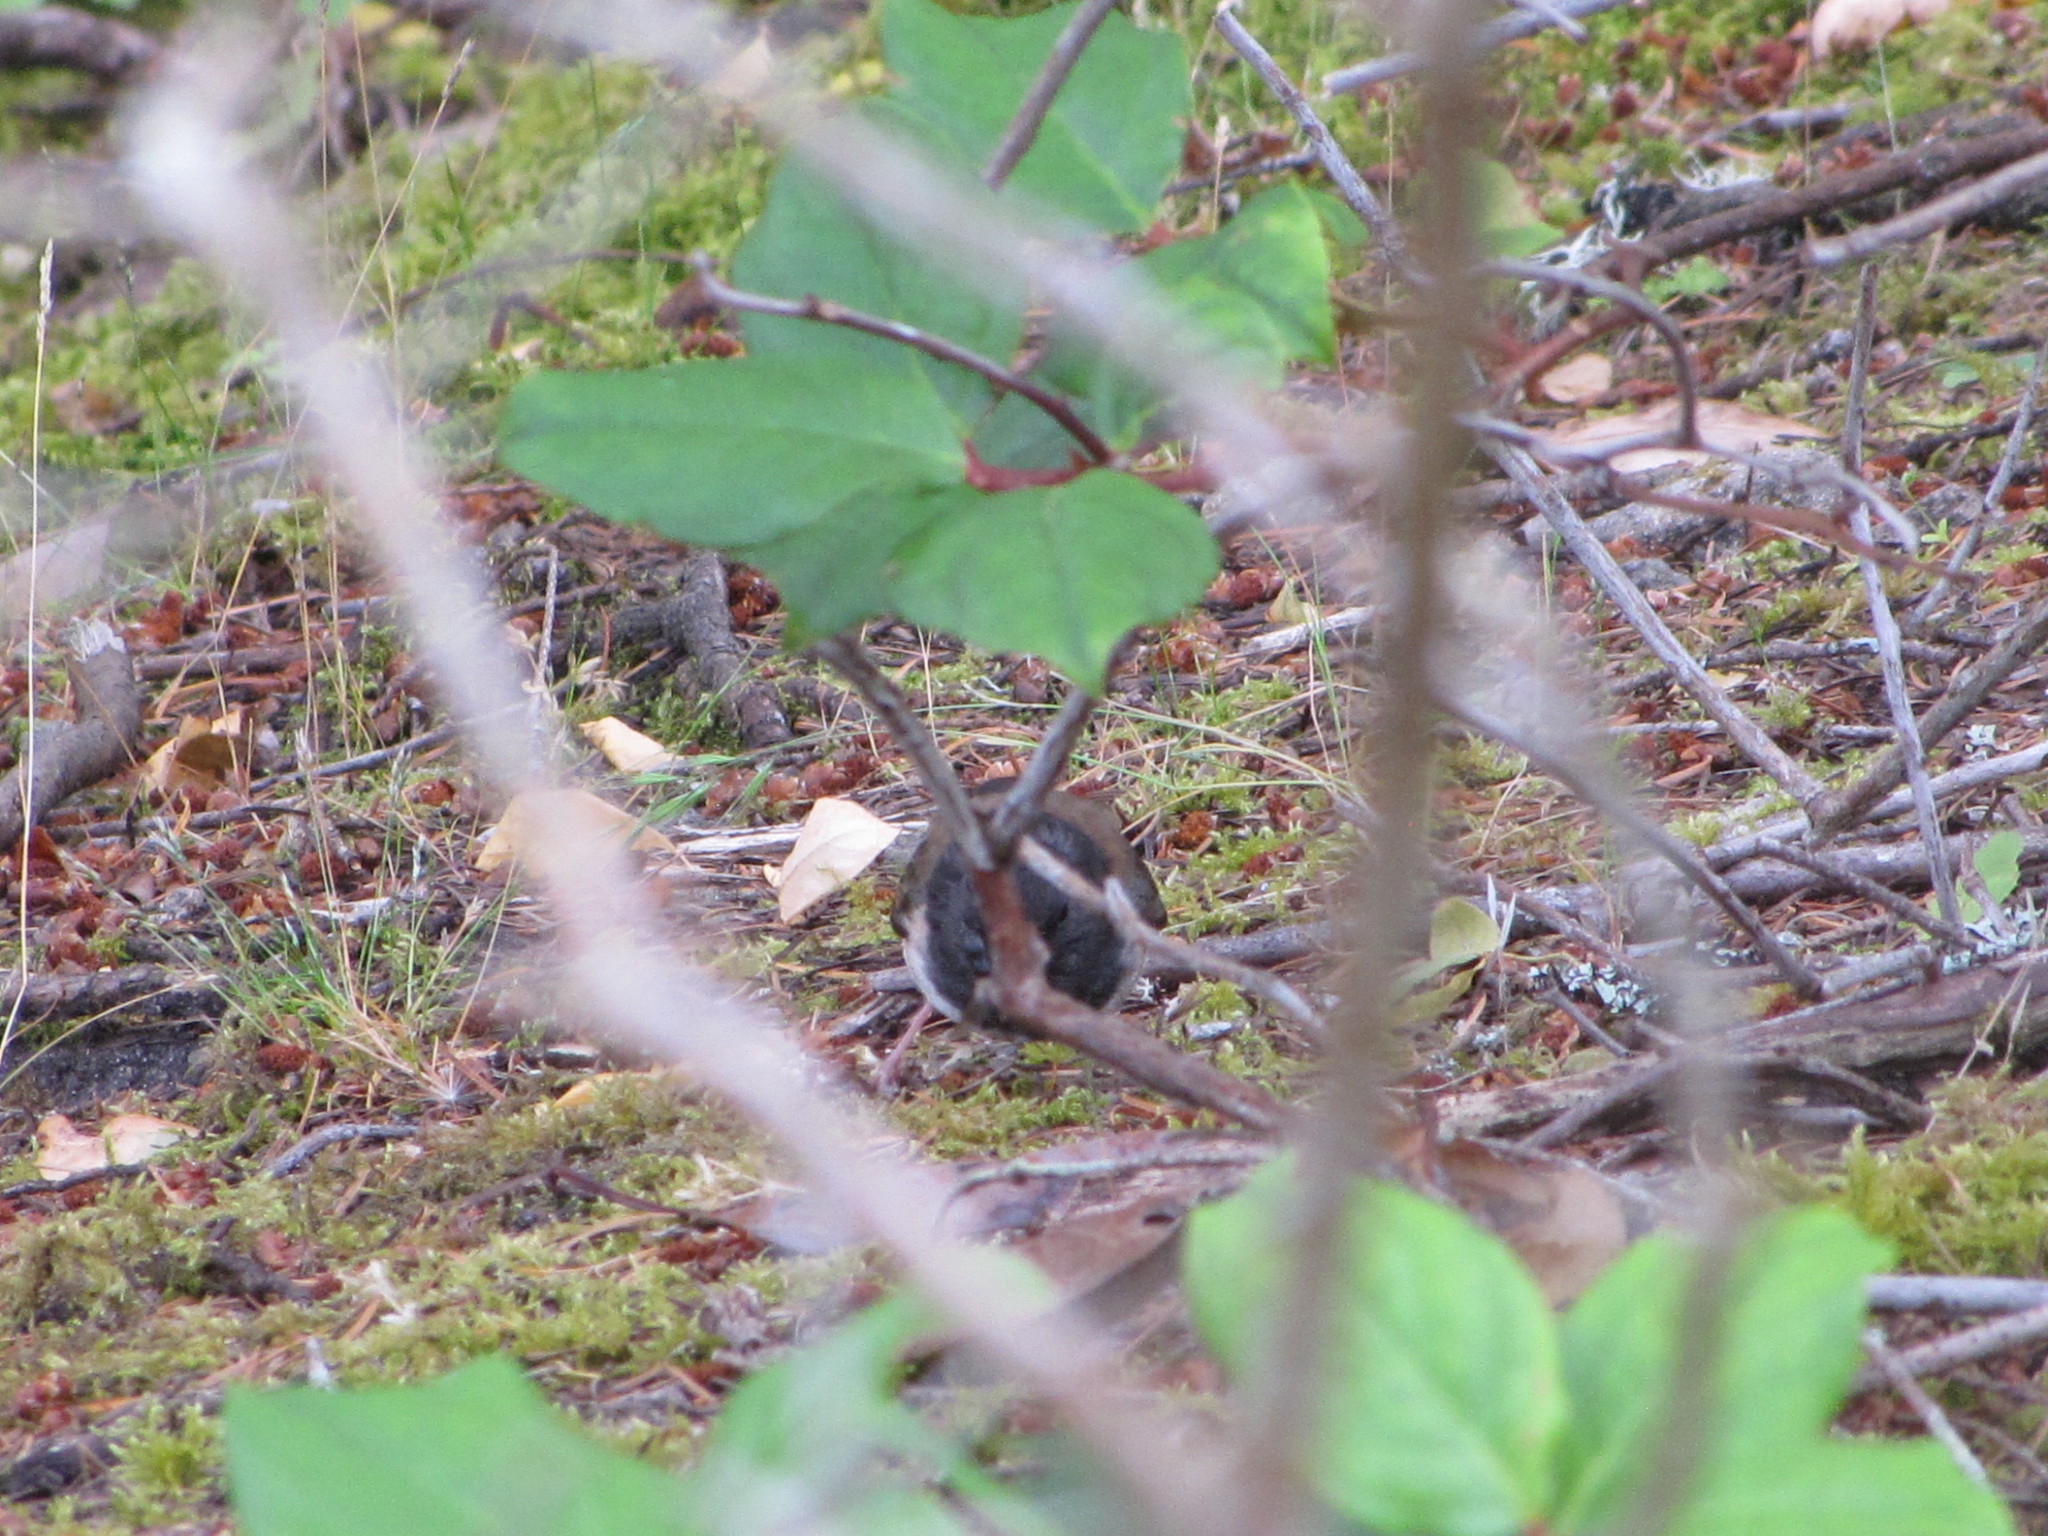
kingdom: Animalia
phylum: Chordata
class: Aves
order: Passeriformes
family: Passerellidae
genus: Junco
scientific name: Junco hyemalis
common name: Dark-eyed junco
